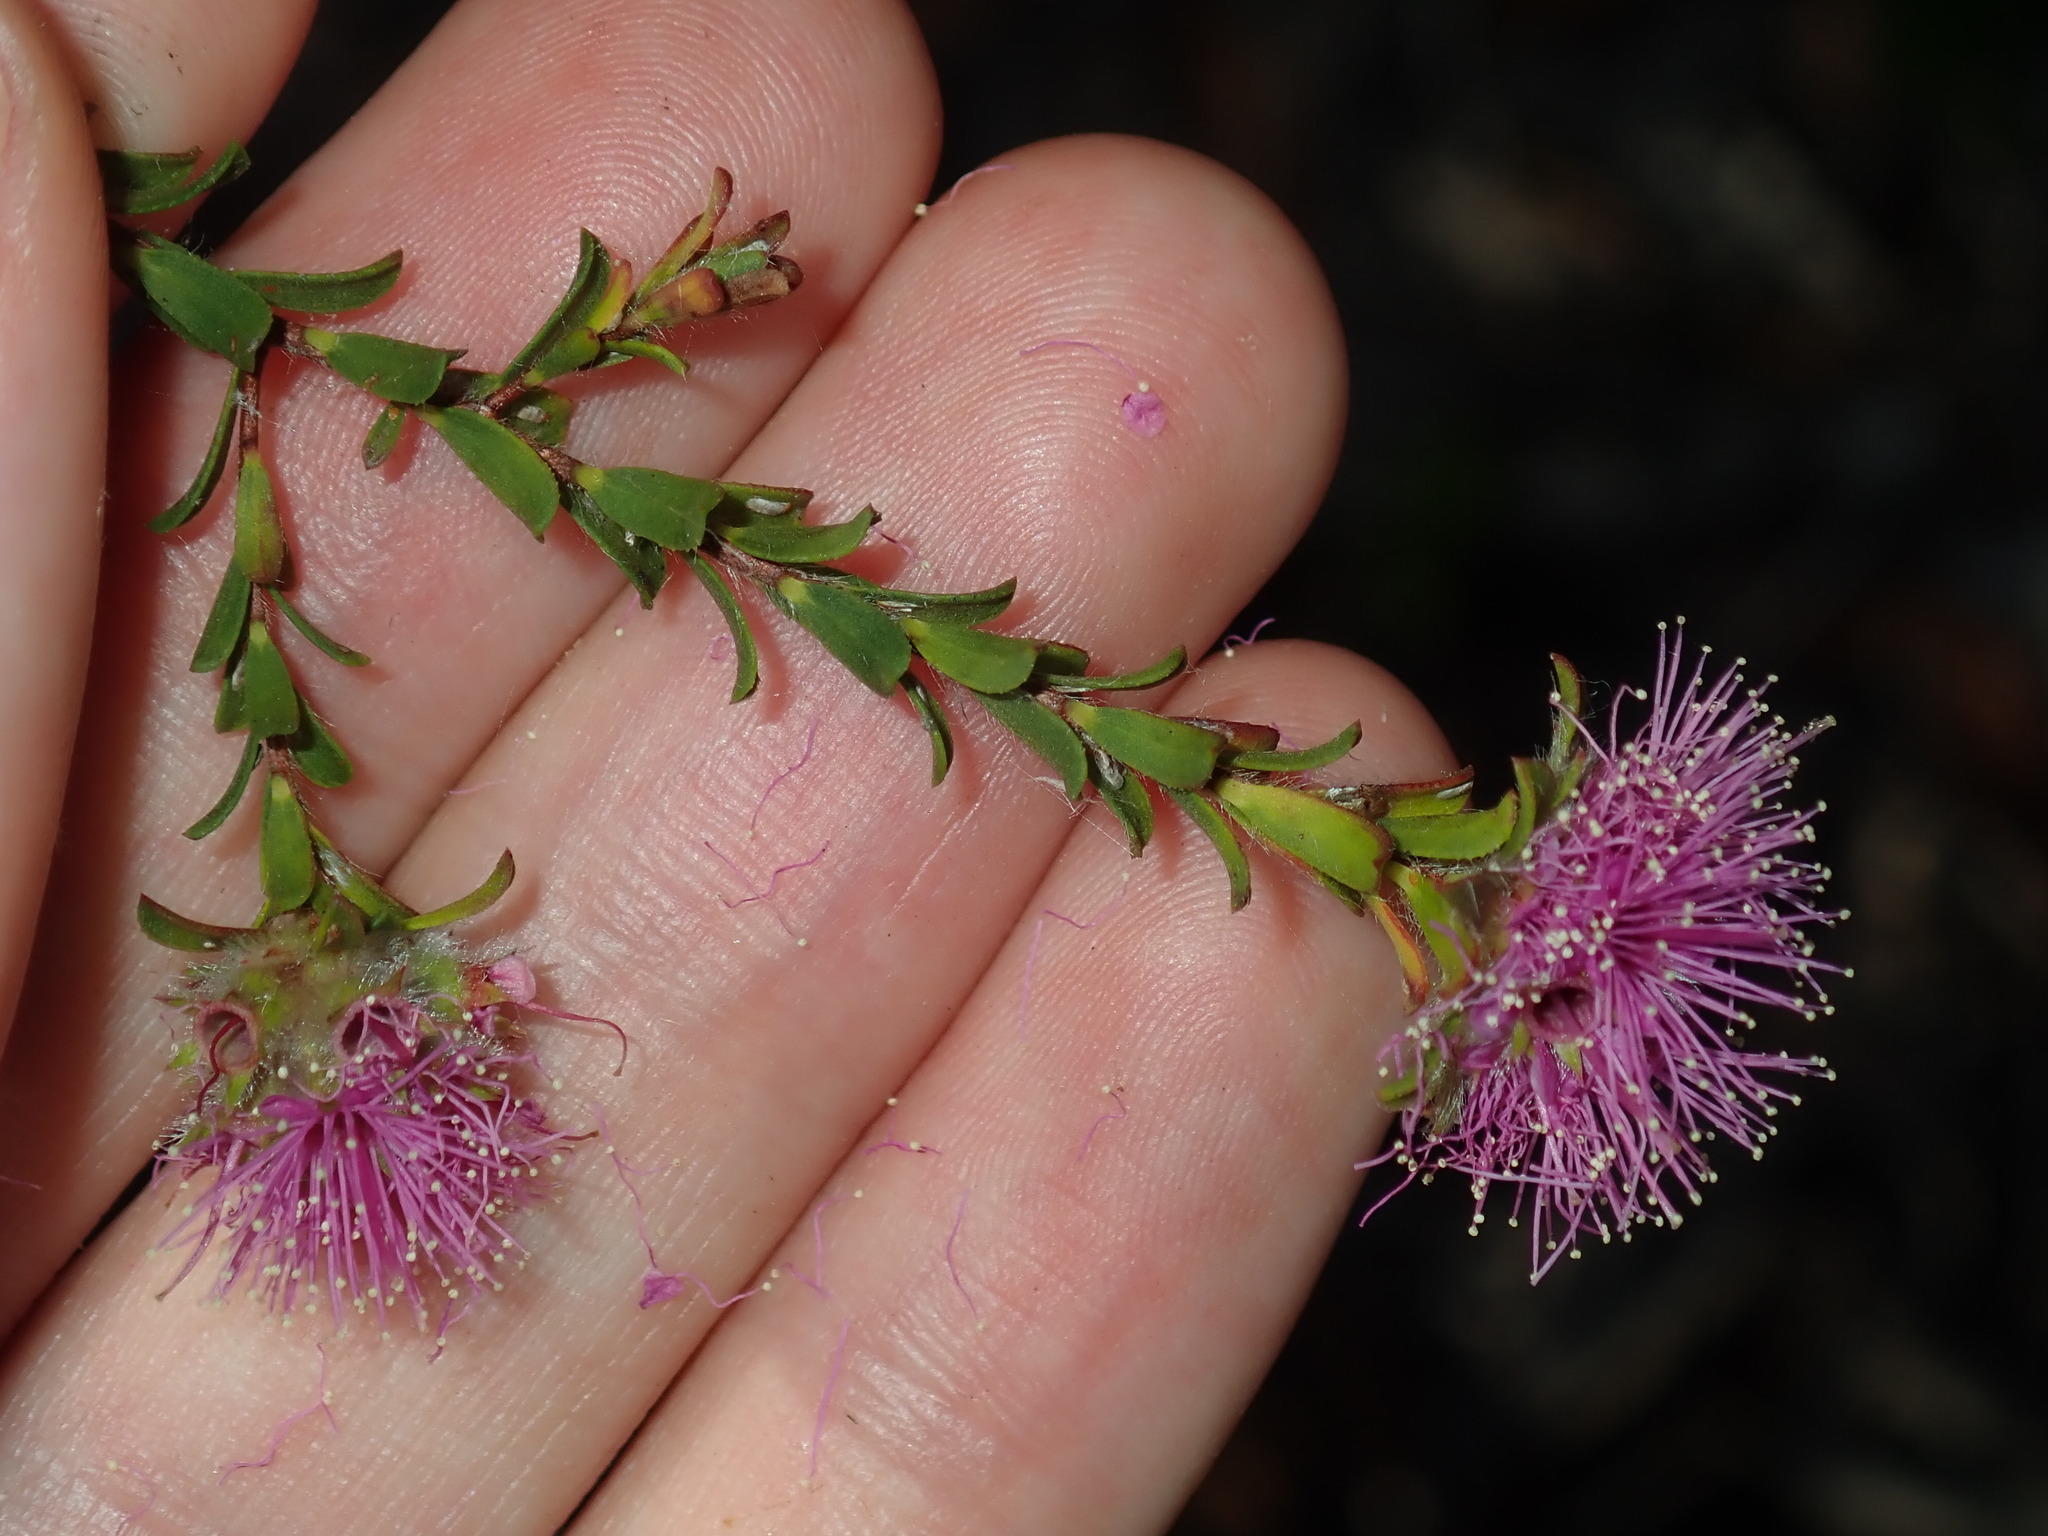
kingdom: Plantae
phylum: Tracheophyta
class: Magnoliopsida
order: Myrtales
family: Myrtaceae
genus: Kunzea
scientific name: Kunzea capitata
